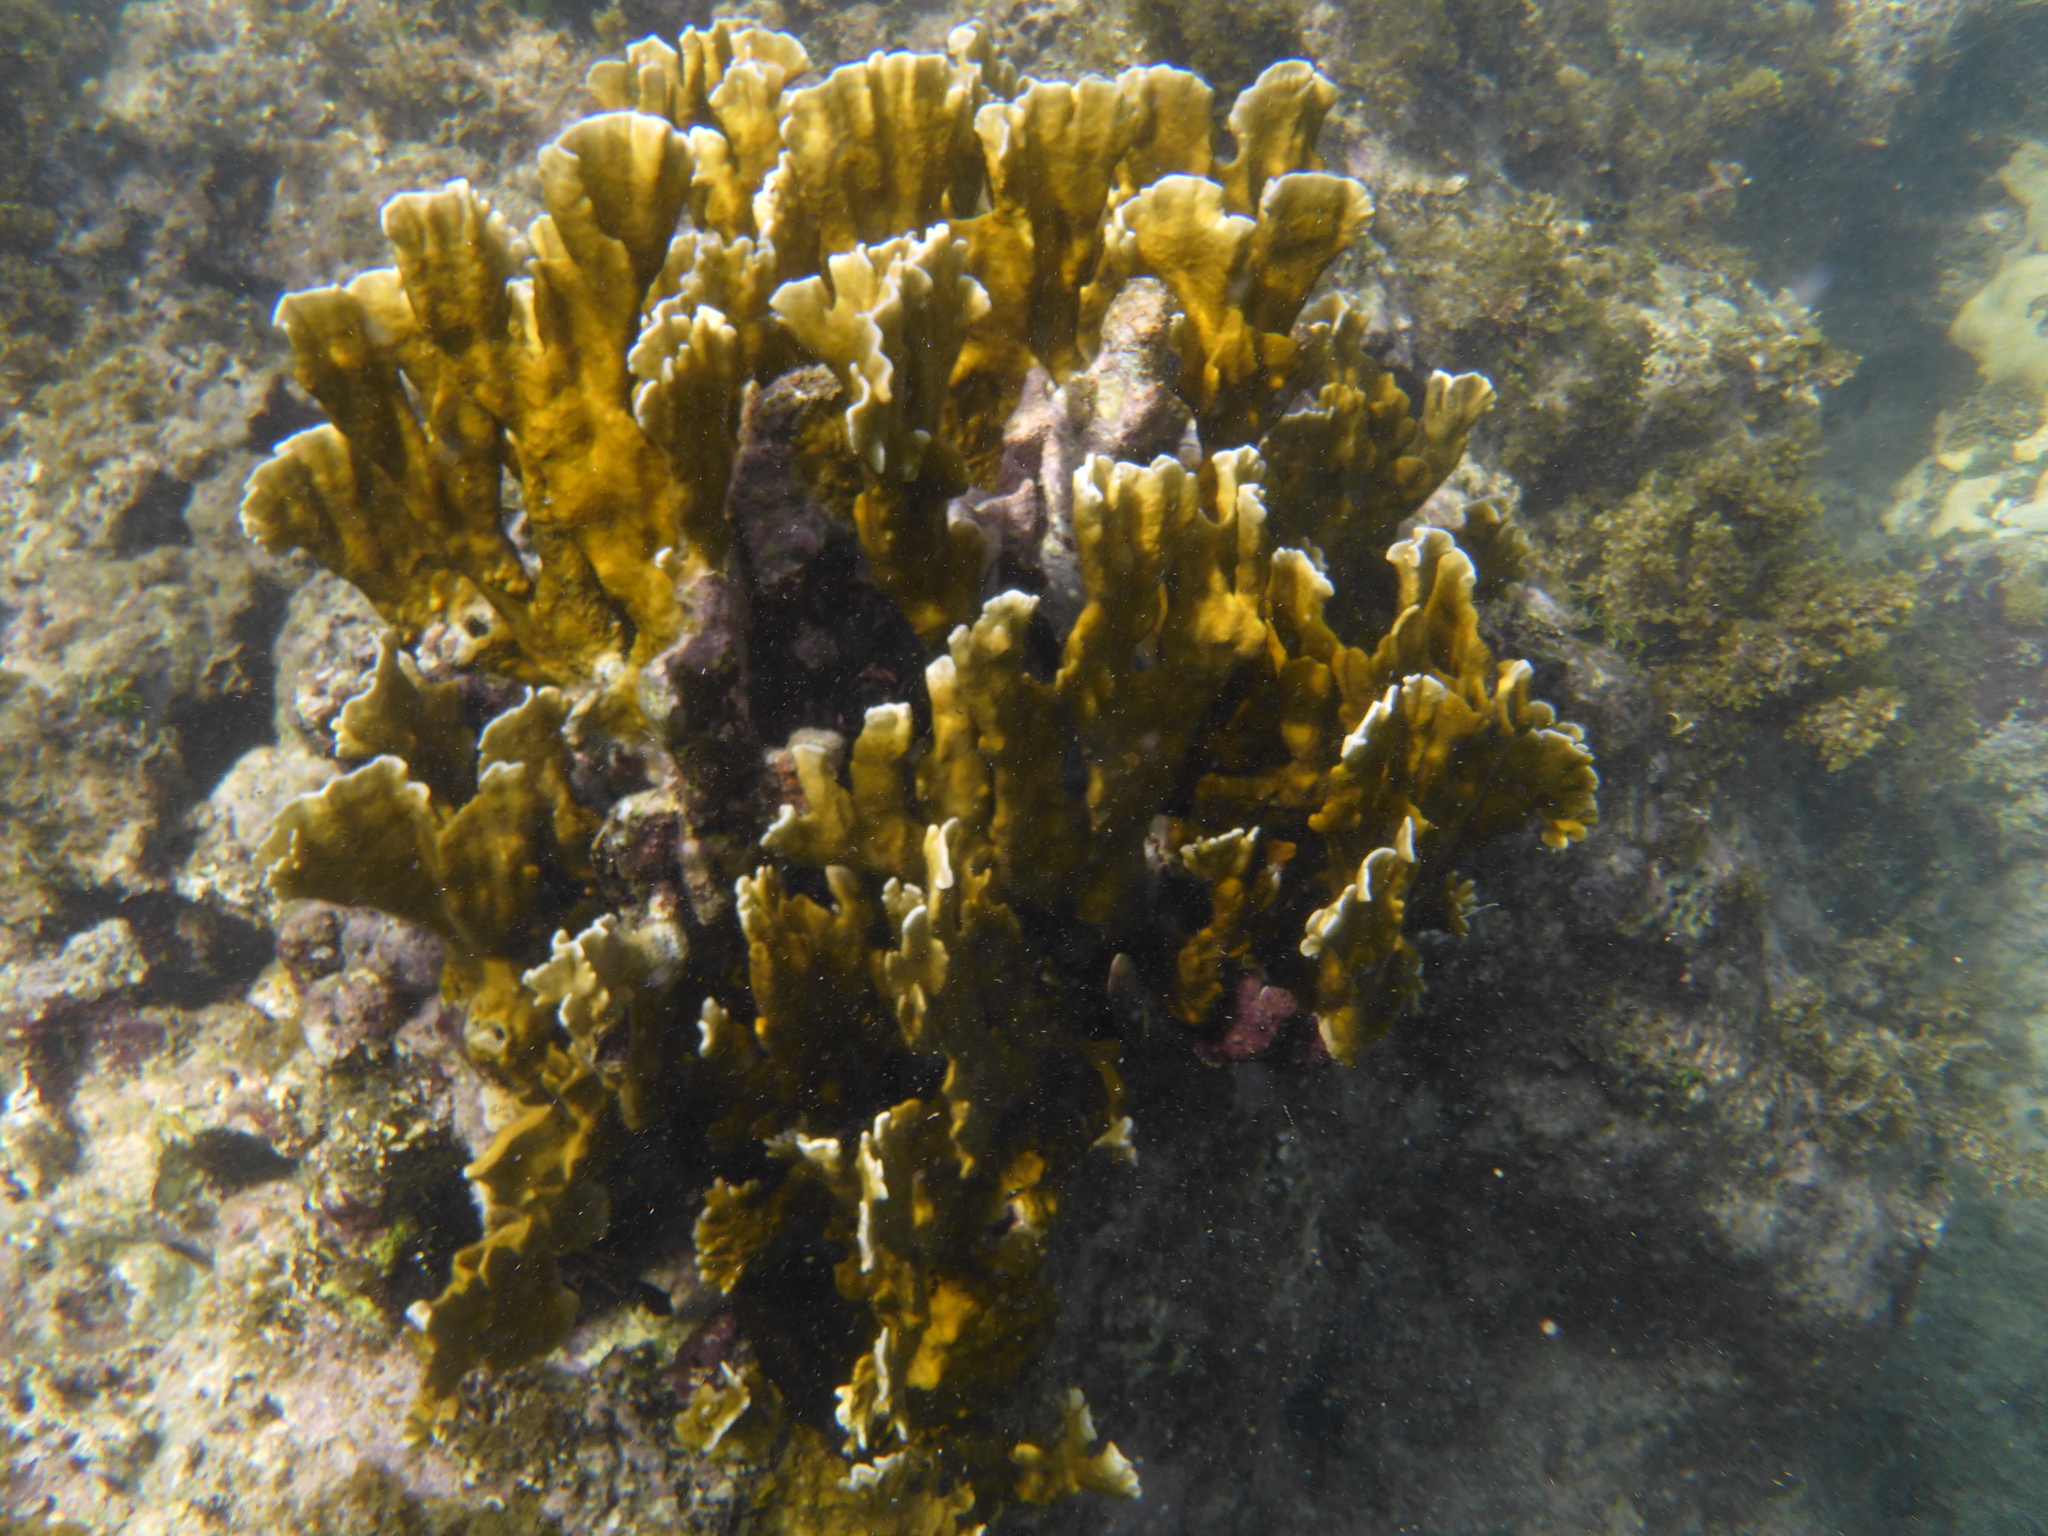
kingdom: Animalia
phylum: Cnidaria
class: Hydrozoa
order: Anthoathecata
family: Milleporidae
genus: Millepora
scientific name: Millepora complanata
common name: Bladed fire coral
